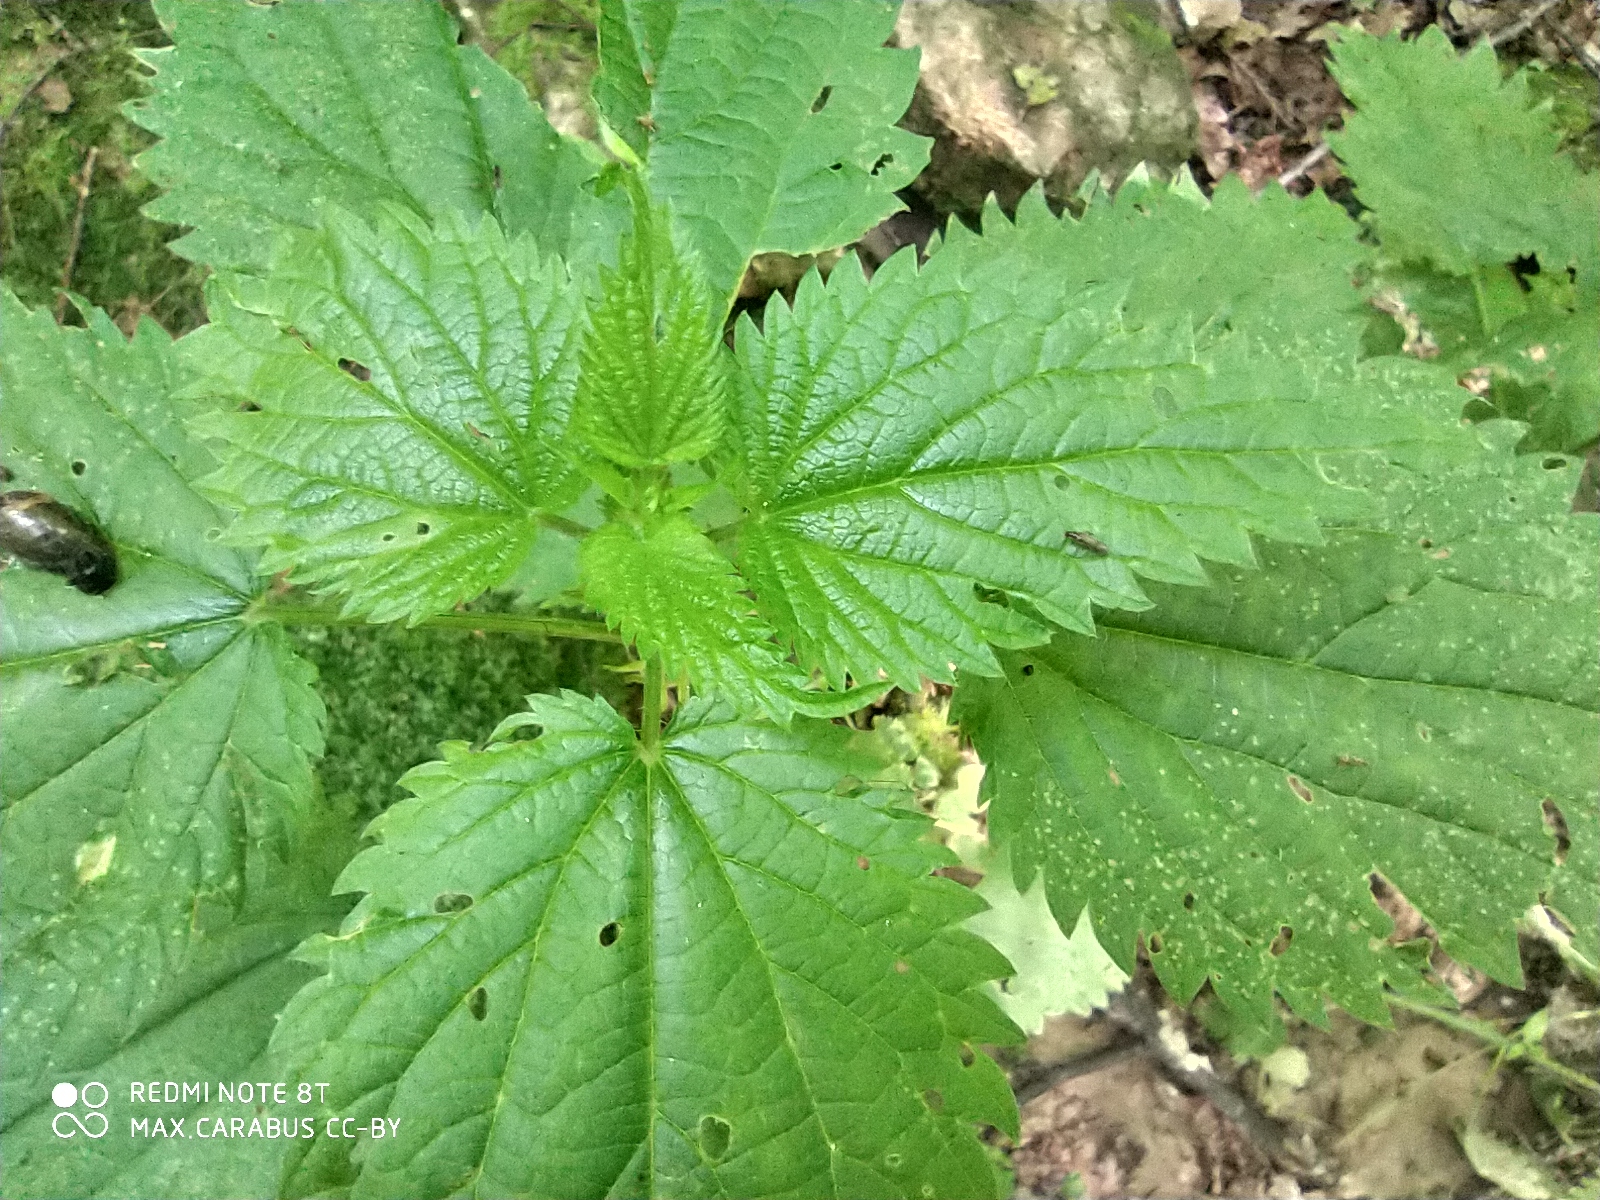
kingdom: Plantae
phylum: Tracheophyta
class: Magnoliopsida
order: Rosales
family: Urticaceae
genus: Urtica
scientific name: Urtica dioica
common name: Common nettle
